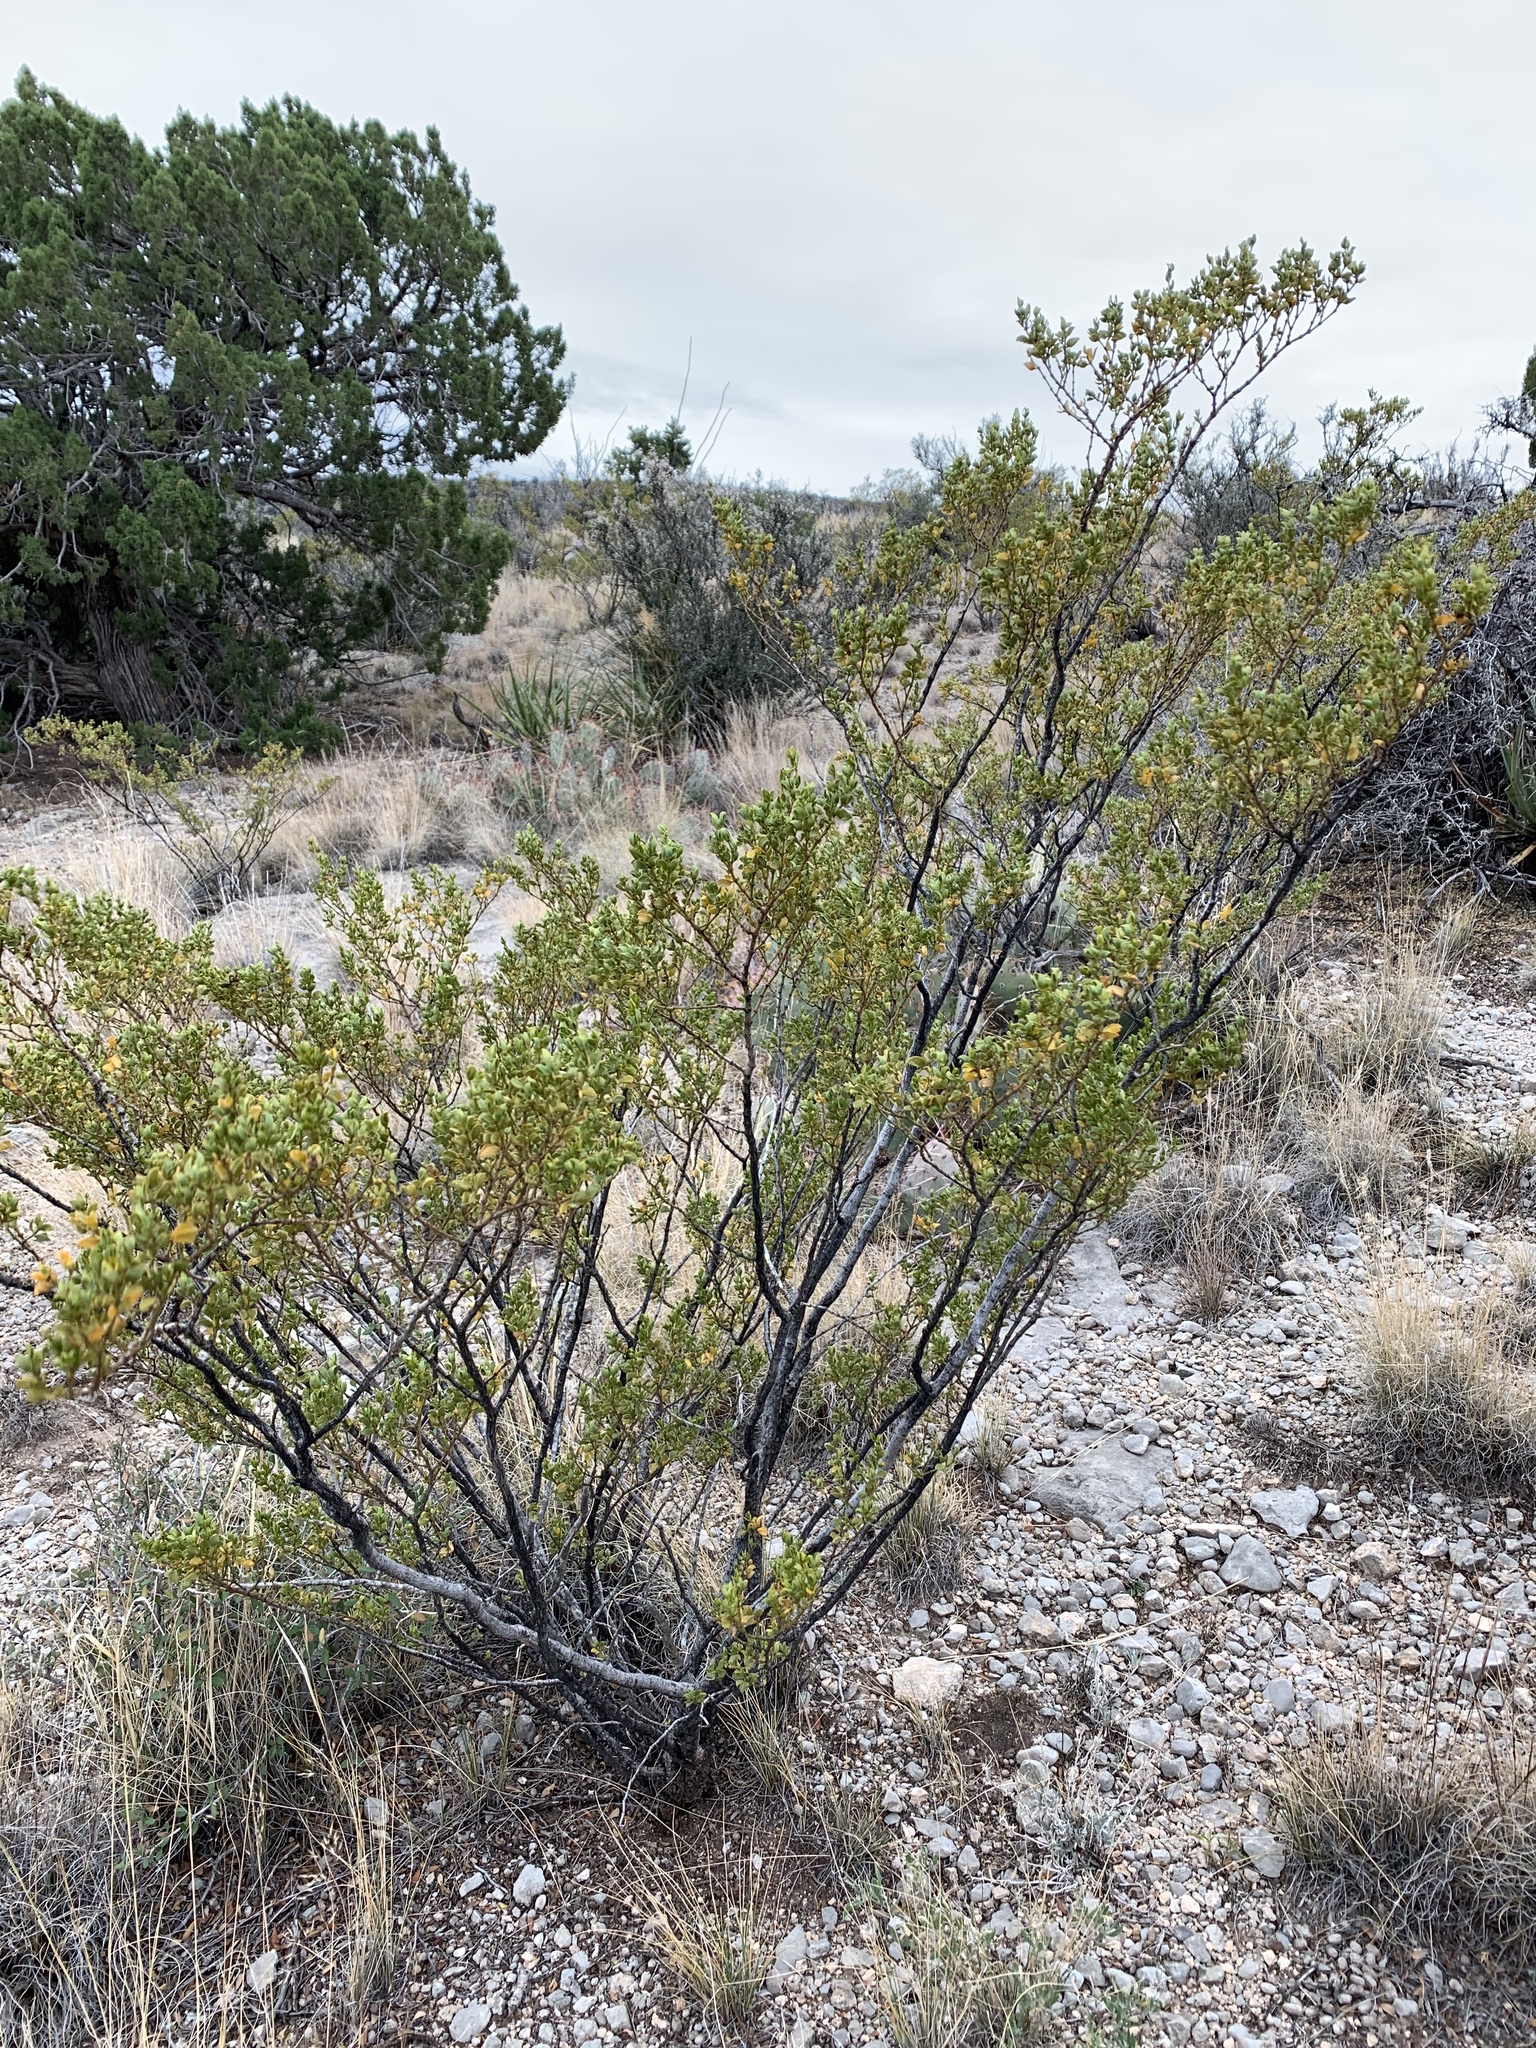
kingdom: Plantae
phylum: Tracheophyta
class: Magnoliopsida
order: Zygophyllales
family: Zygophyllaceae
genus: Larrea
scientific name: Larrea tridentata
